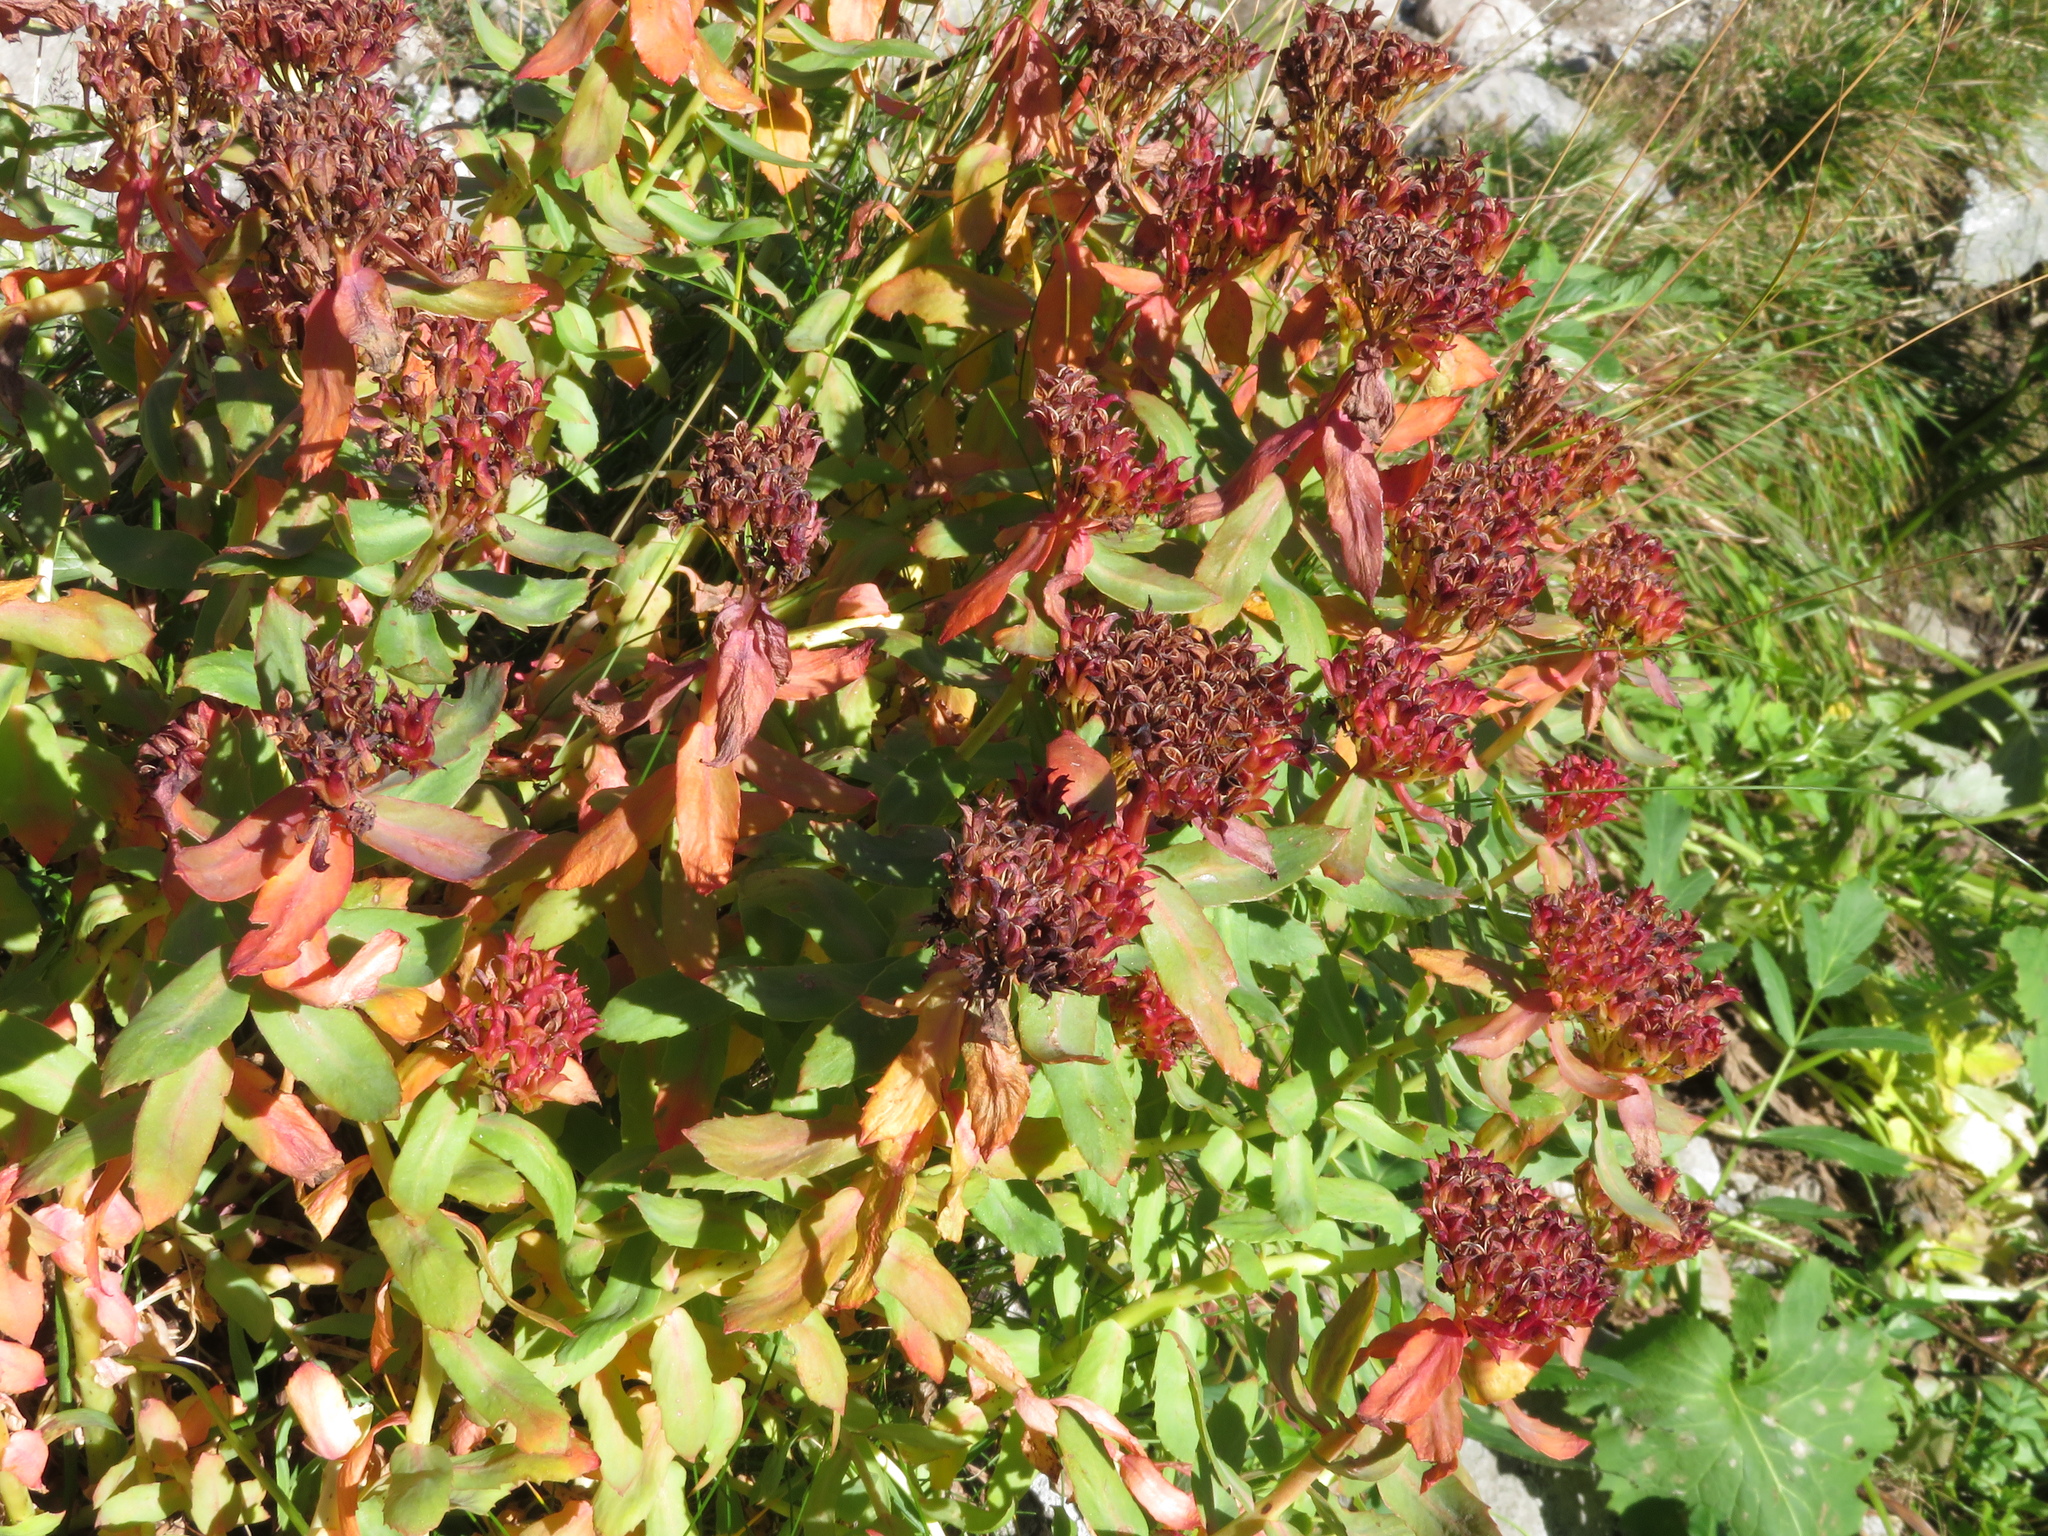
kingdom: Plantae
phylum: Tracheophyta
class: Magnoliopsida
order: Saxifragales
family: Crassulaceae
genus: Rhodiola
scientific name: Rhodiola rosea
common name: Roseroot
